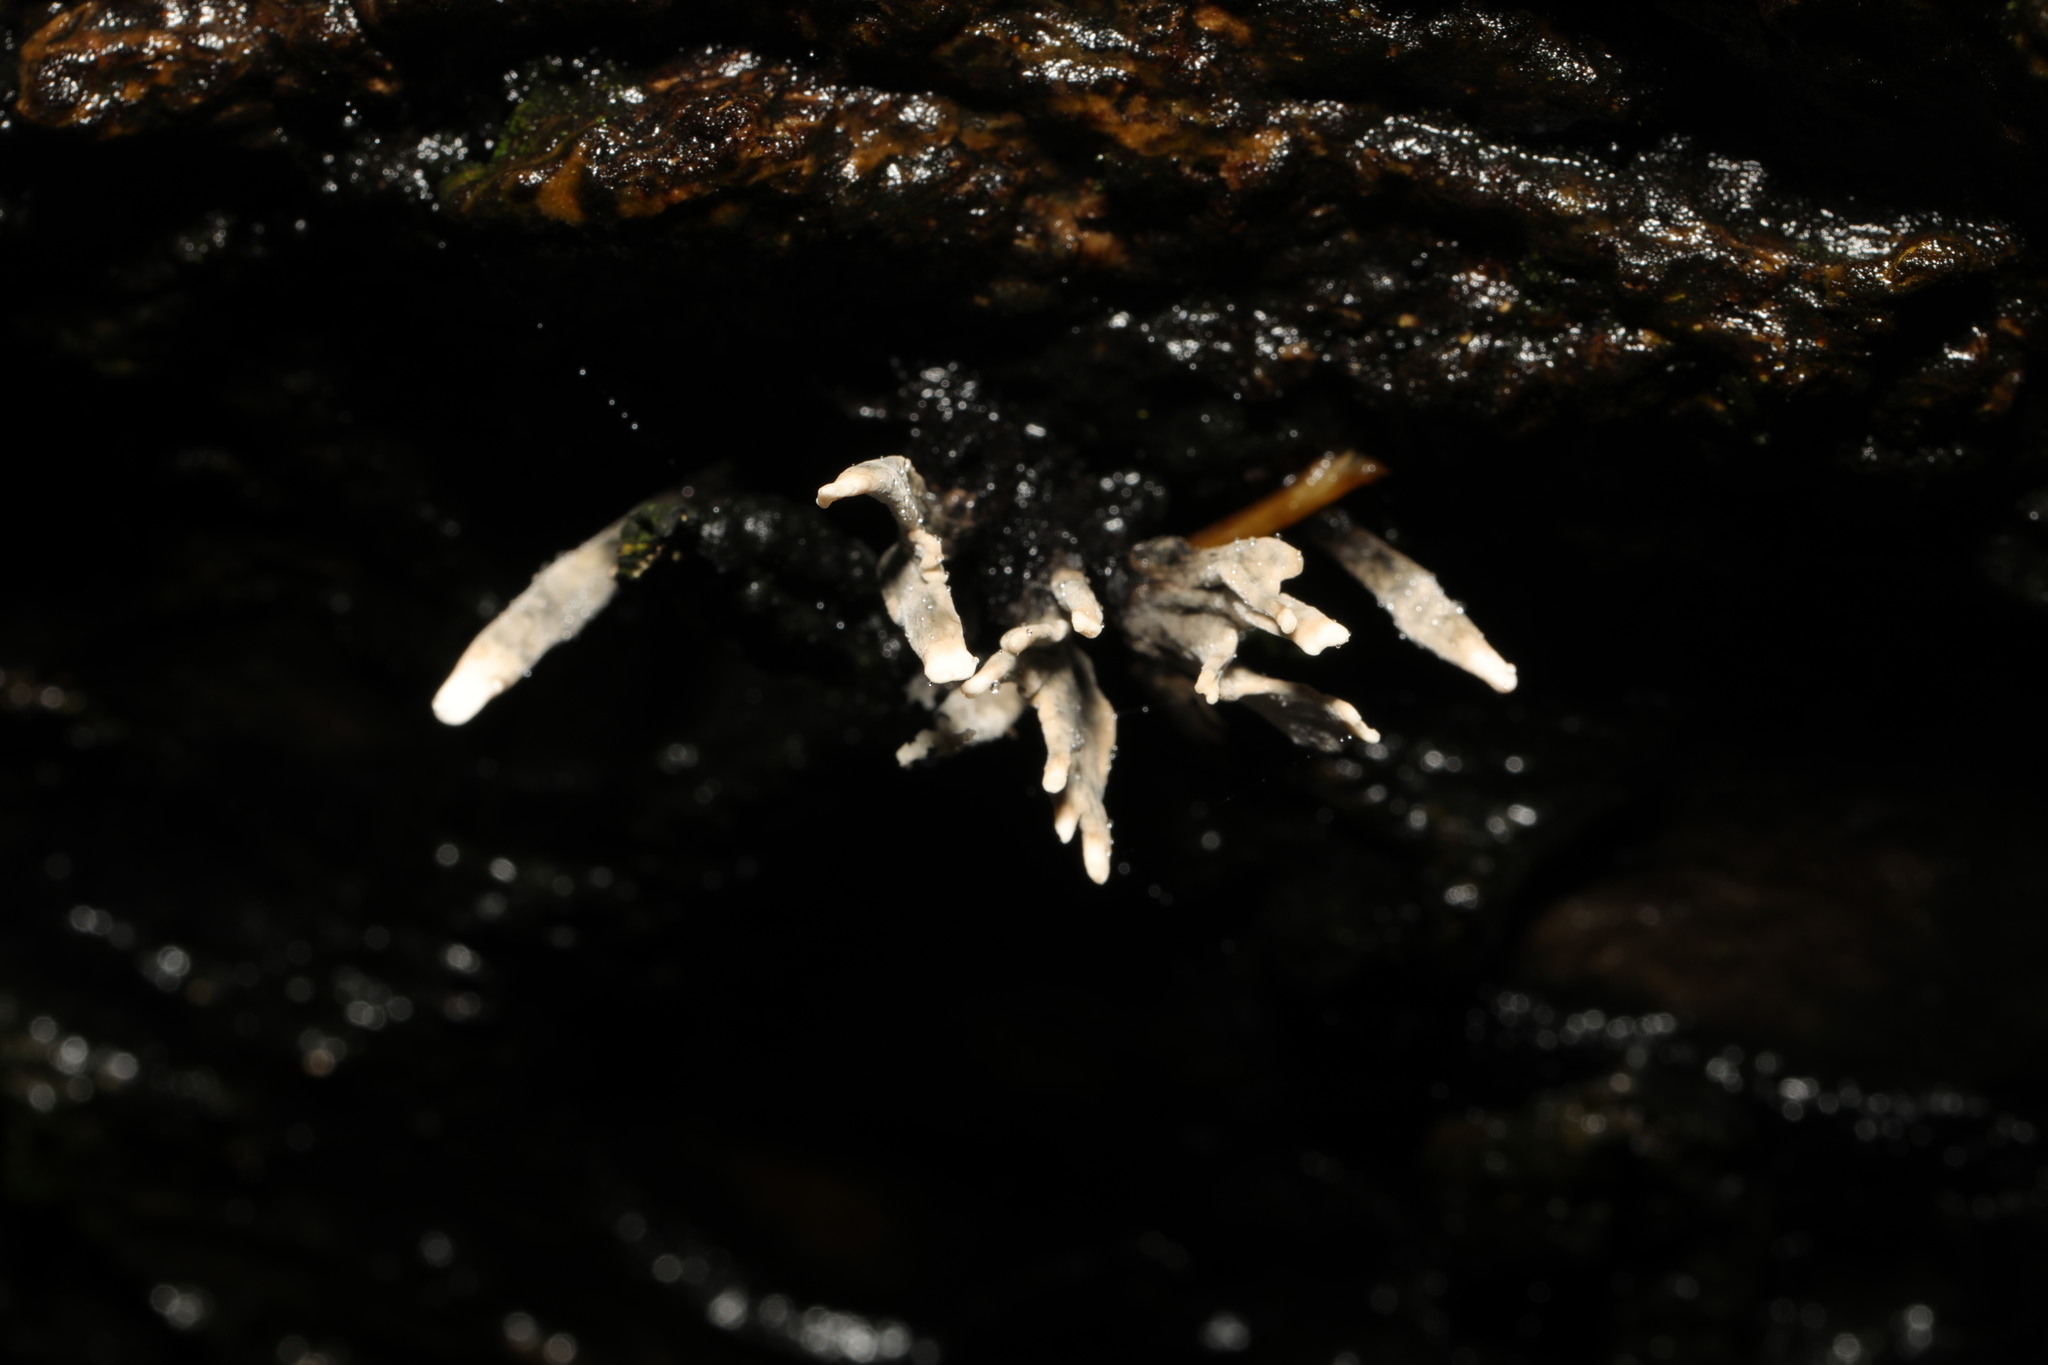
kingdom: Fungi
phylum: Ascomycota
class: Sordariomycetes
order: Xylariales
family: Xylariaceae
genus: Xylaria
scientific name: Xylaria hypoxylon
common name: Candle-snuff fungus
